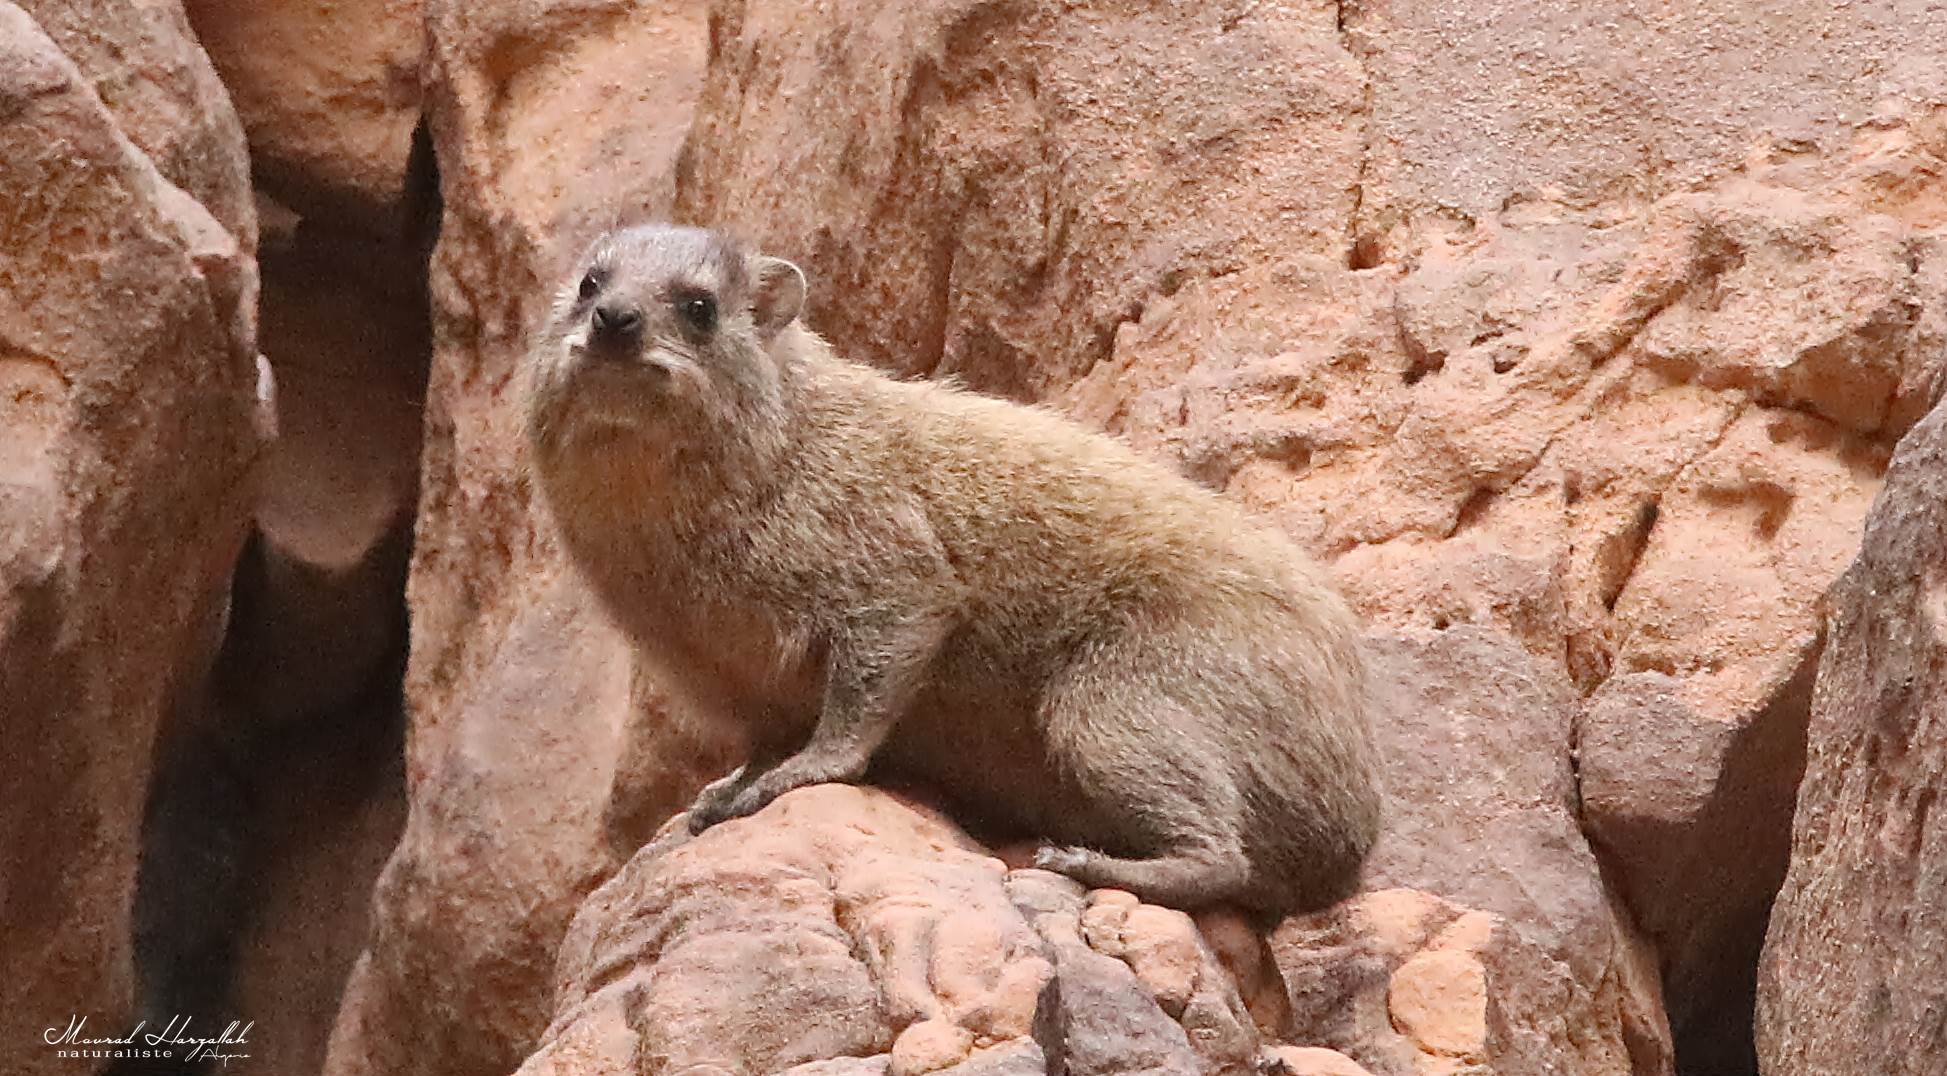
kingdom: Animalia
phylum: Chordata
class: Mammalia
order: Hyracoidea
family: Procaviidae
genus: Procavia
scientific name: Procavia capensis
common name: Rock hyrax
